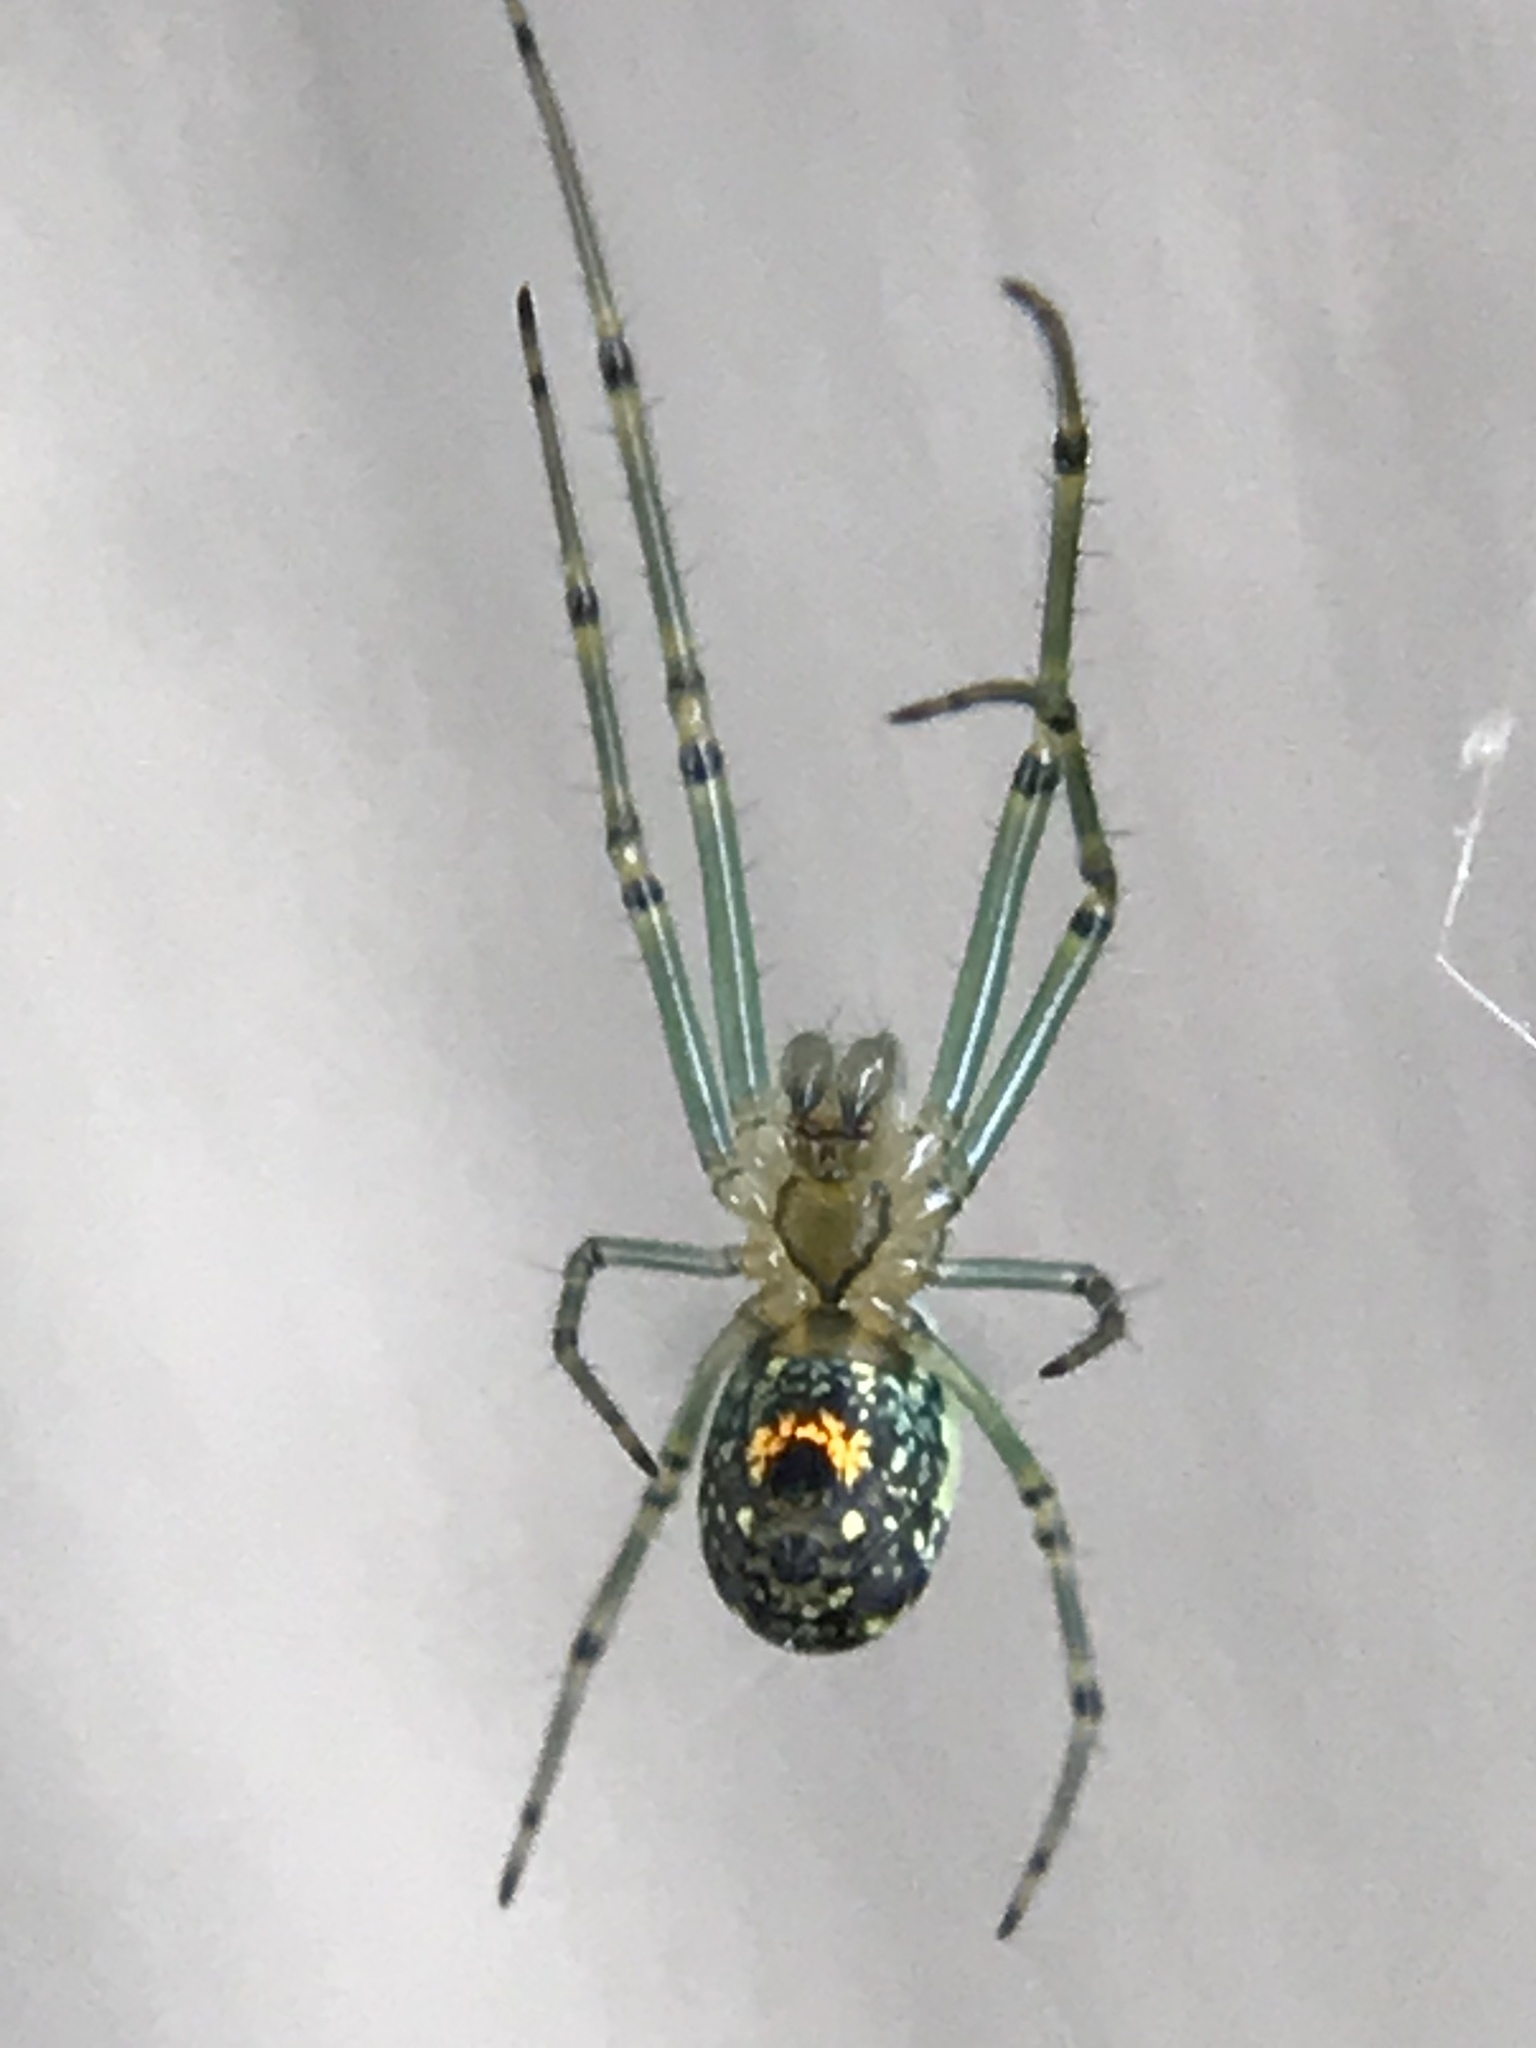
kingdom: Animalia
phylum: Arthropoda
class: Arachnida
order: Araneae
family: Tetragnathidae
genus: Leucauge
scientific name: Leucauge venusta
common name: Longjawed orb weavers
